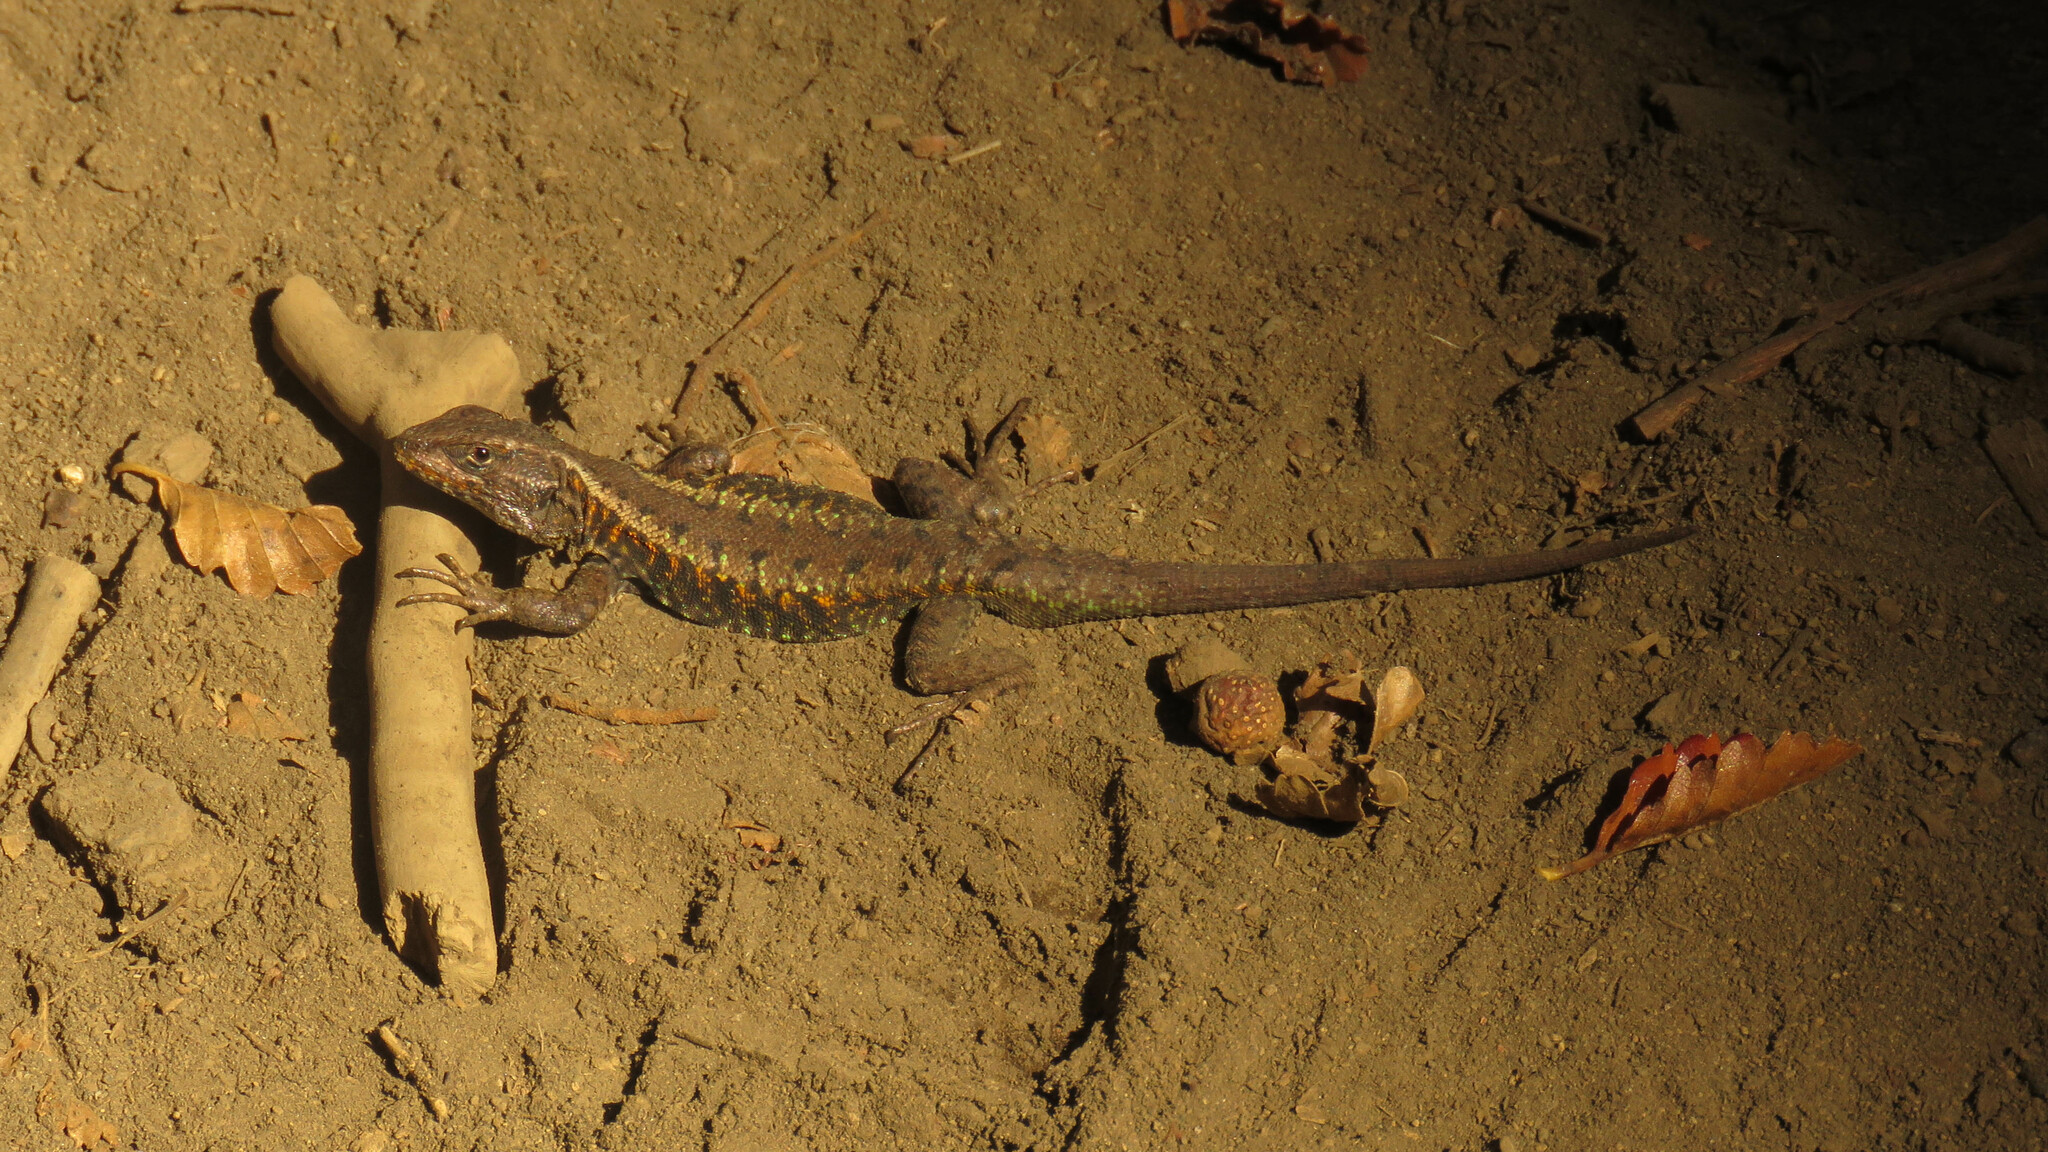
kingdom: Animalia
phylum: Chordata
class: Squamata
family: Liolaemidae
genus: Liolaemus
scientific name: Liolaemus pictus
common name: Painted tree iguana
